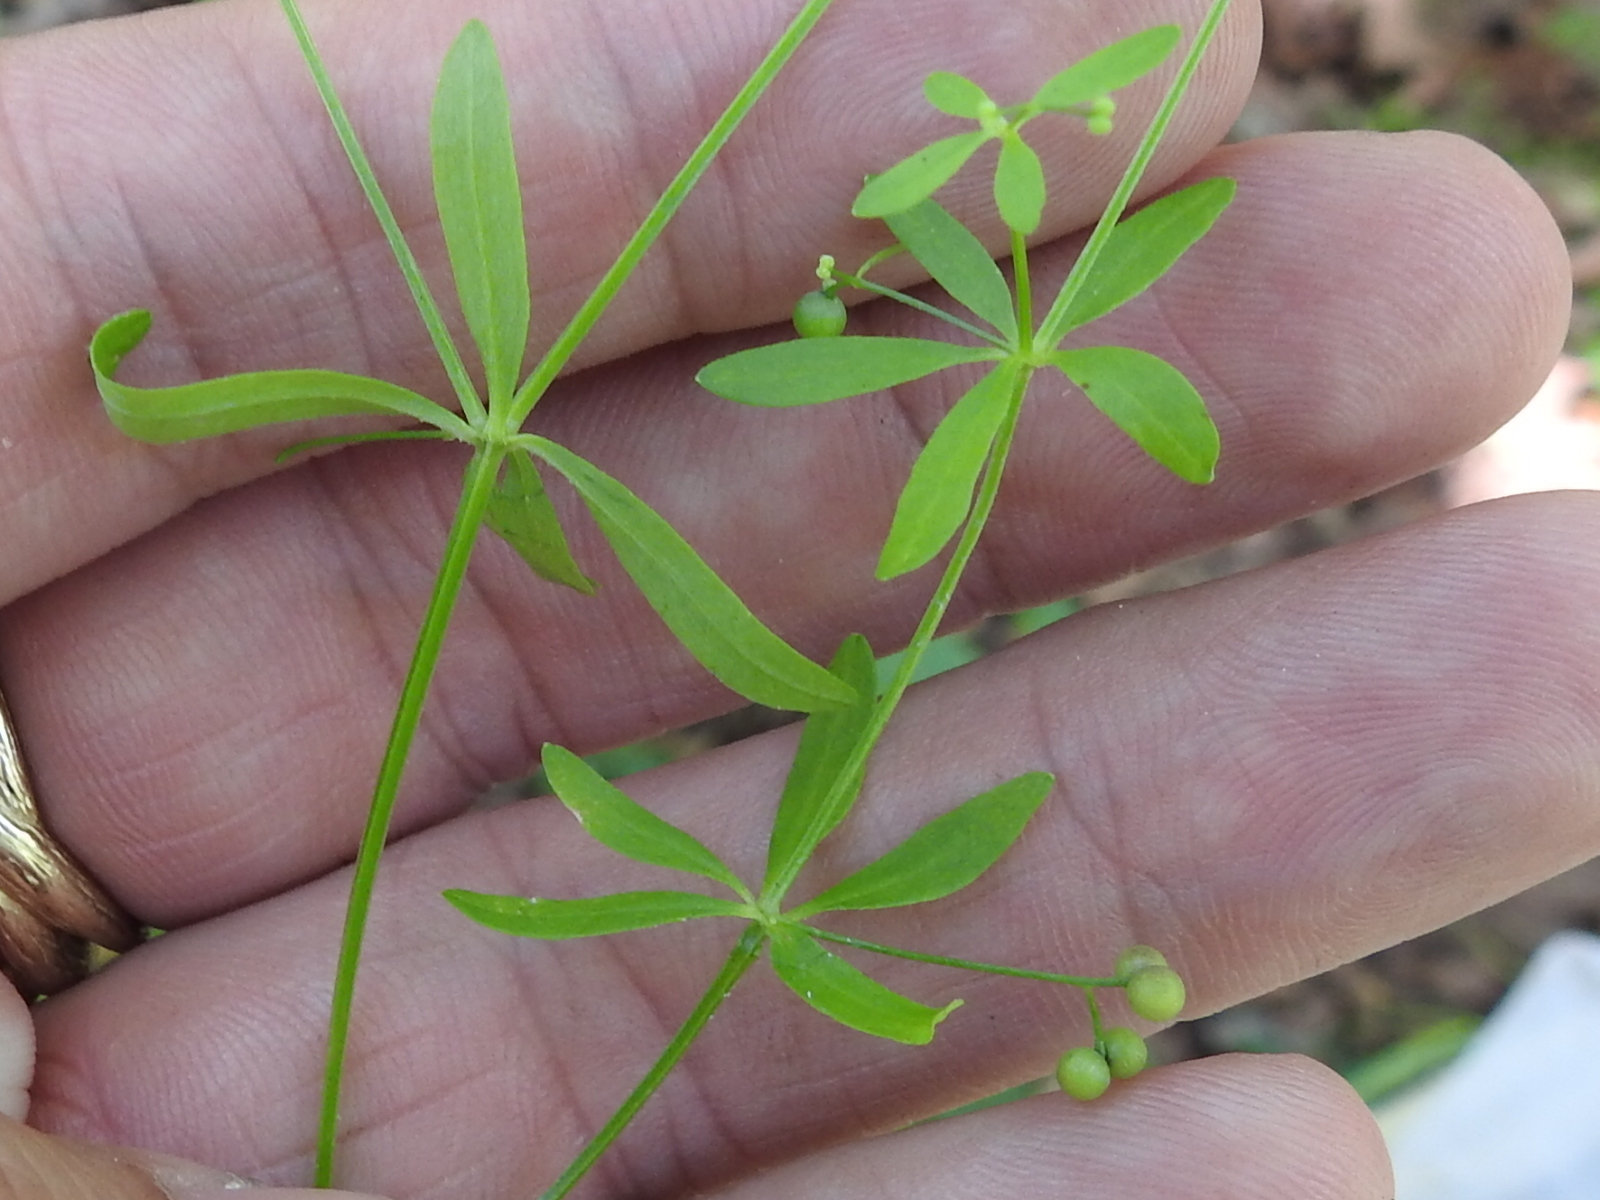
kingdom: Plantae
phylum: Tracheophyta
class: Magnoliopsida
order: Gentianales
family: Rubiaceae
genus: Galium
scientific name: Galium tinctorium
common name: Bedstraw
